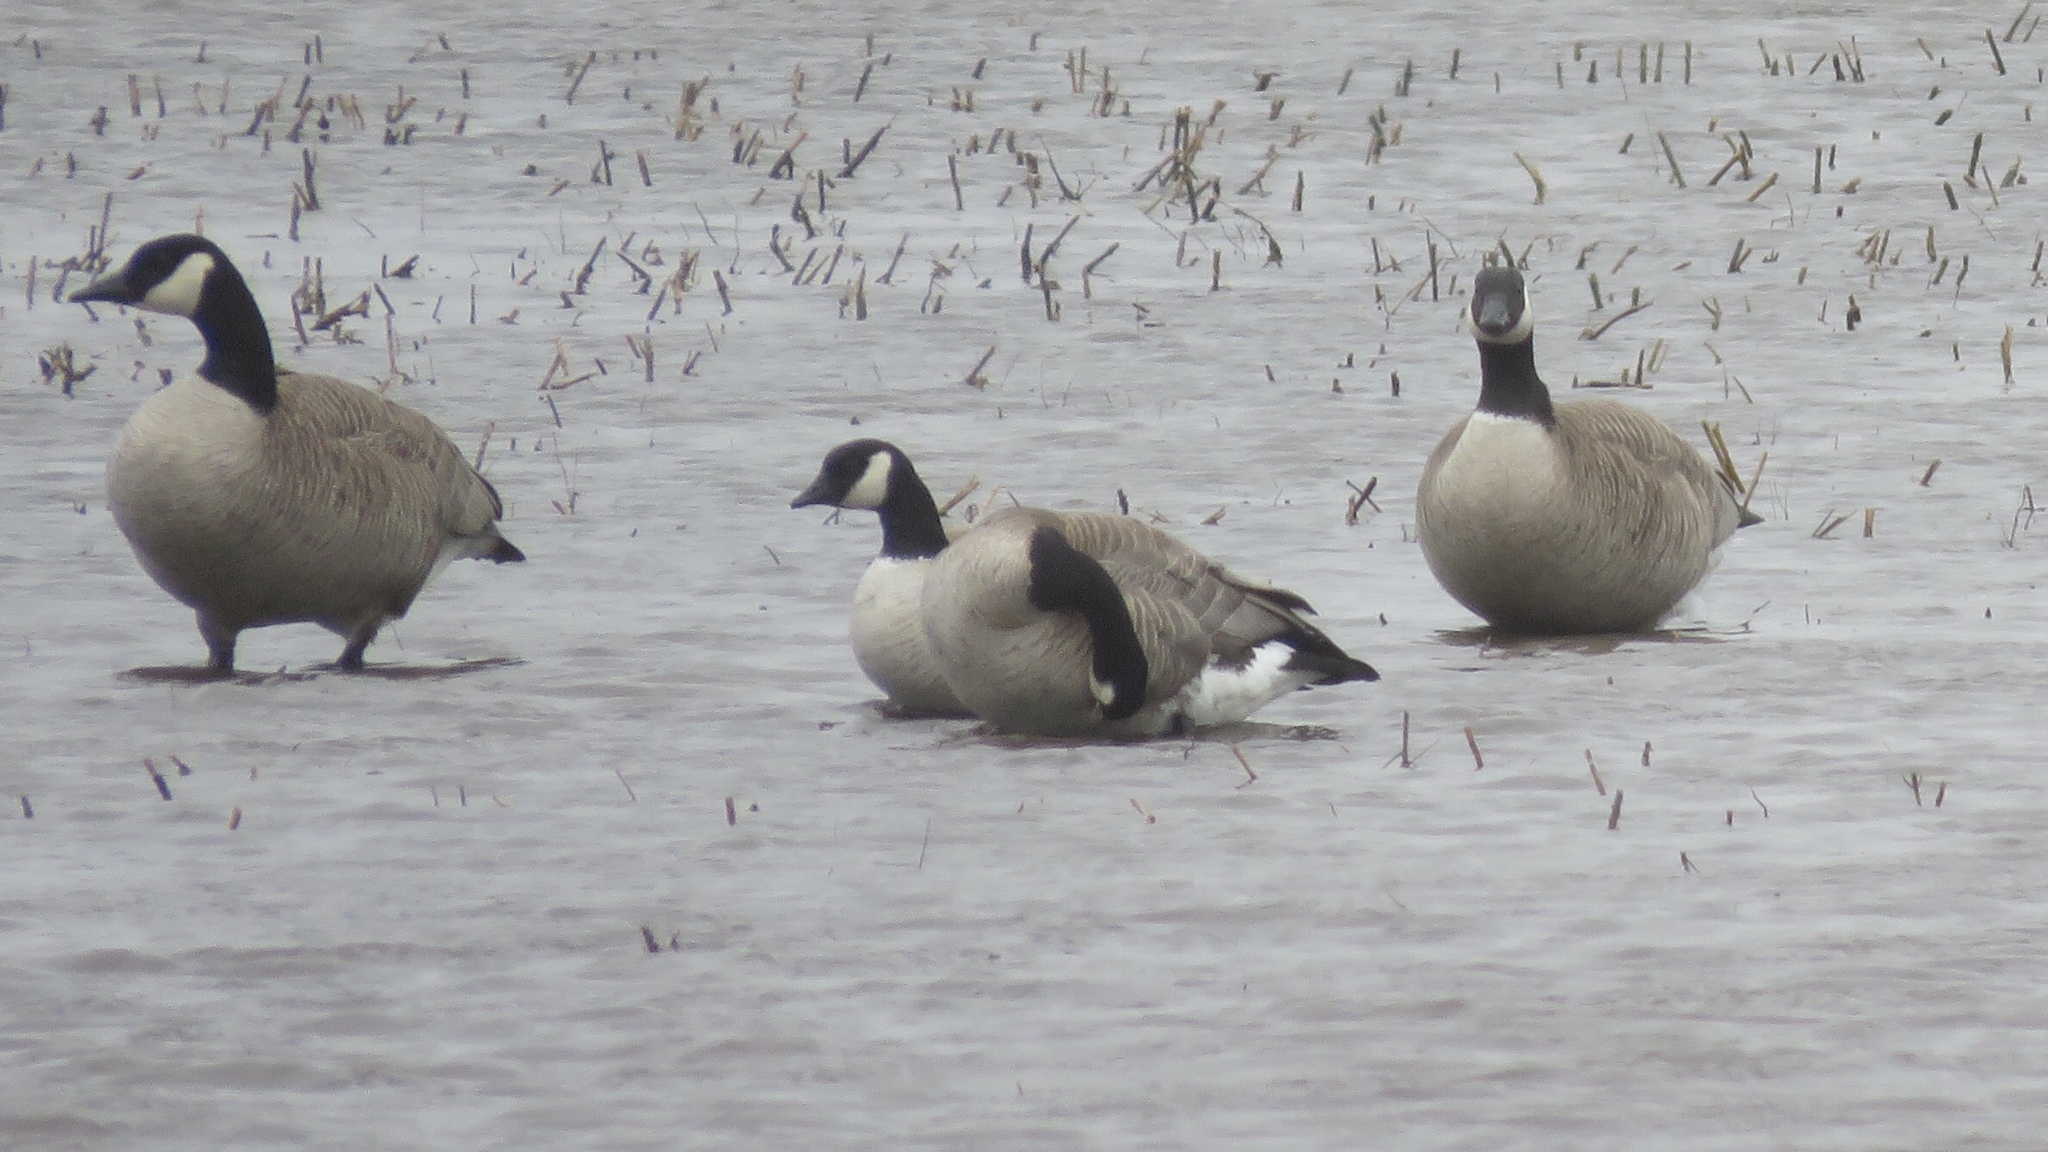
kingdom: Animalia
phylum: Chordata
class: Aves
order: Anseriformes
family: Anatidae
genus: Branta
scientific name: Branta hutchinsii
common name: Cackling goose
